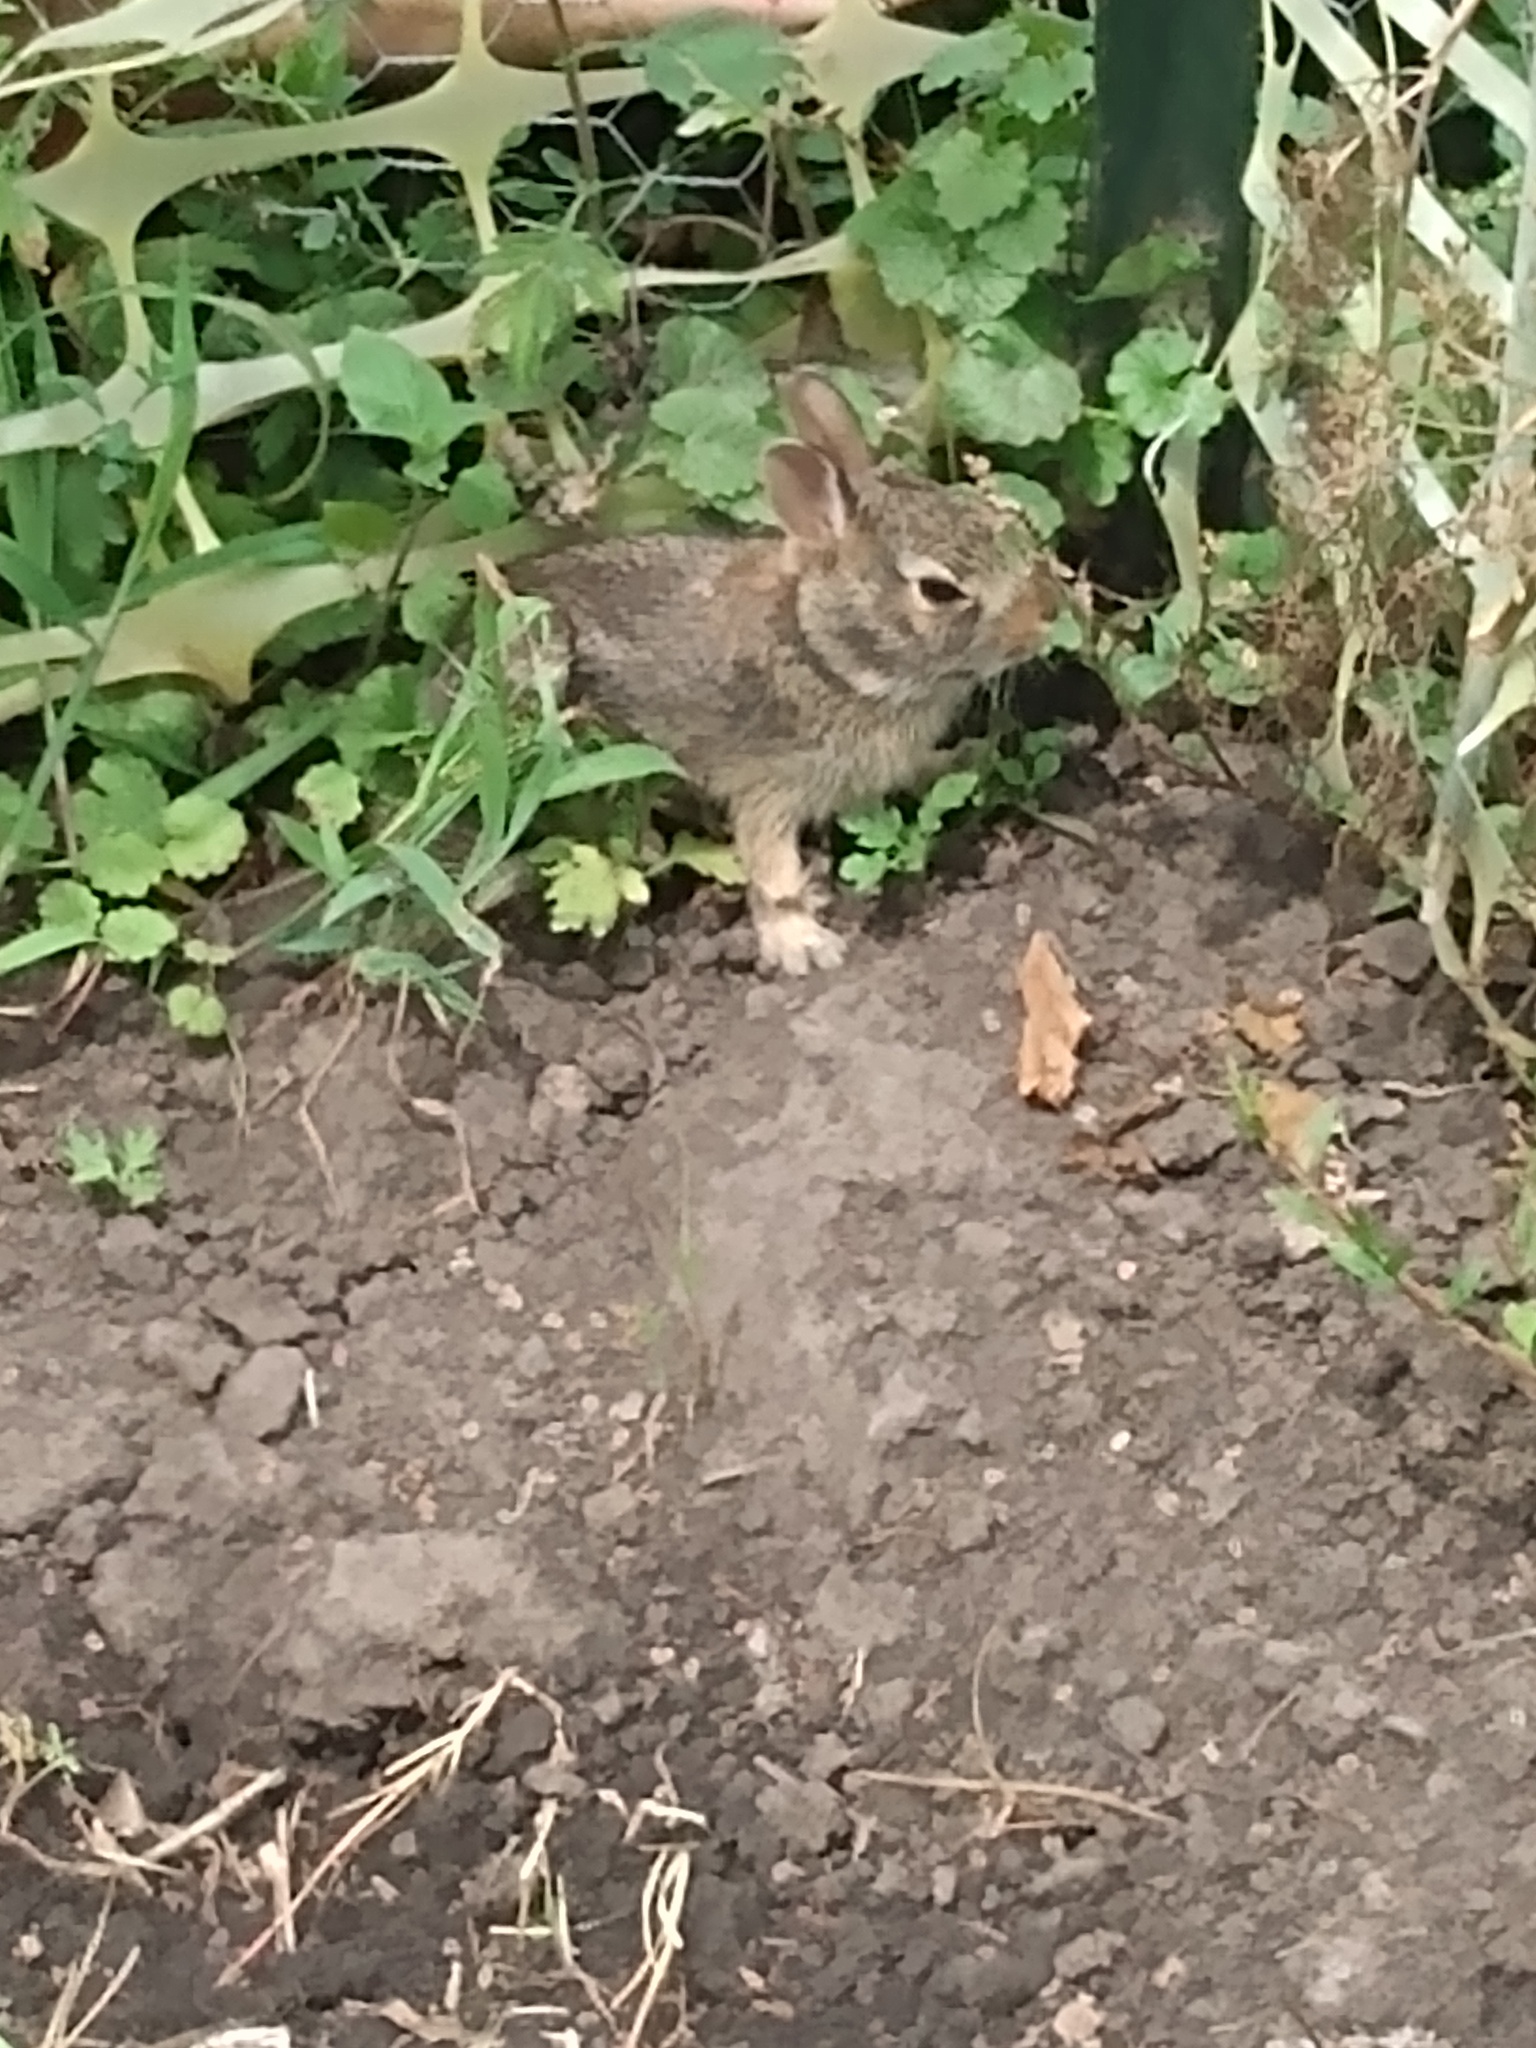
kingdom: Animalia
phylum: Chordata
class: Mammalia
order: Lagomorpha
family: Leporidae
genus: Sylvilagus
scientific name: Sylvilagus floridanus
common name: Eastern cottontail
